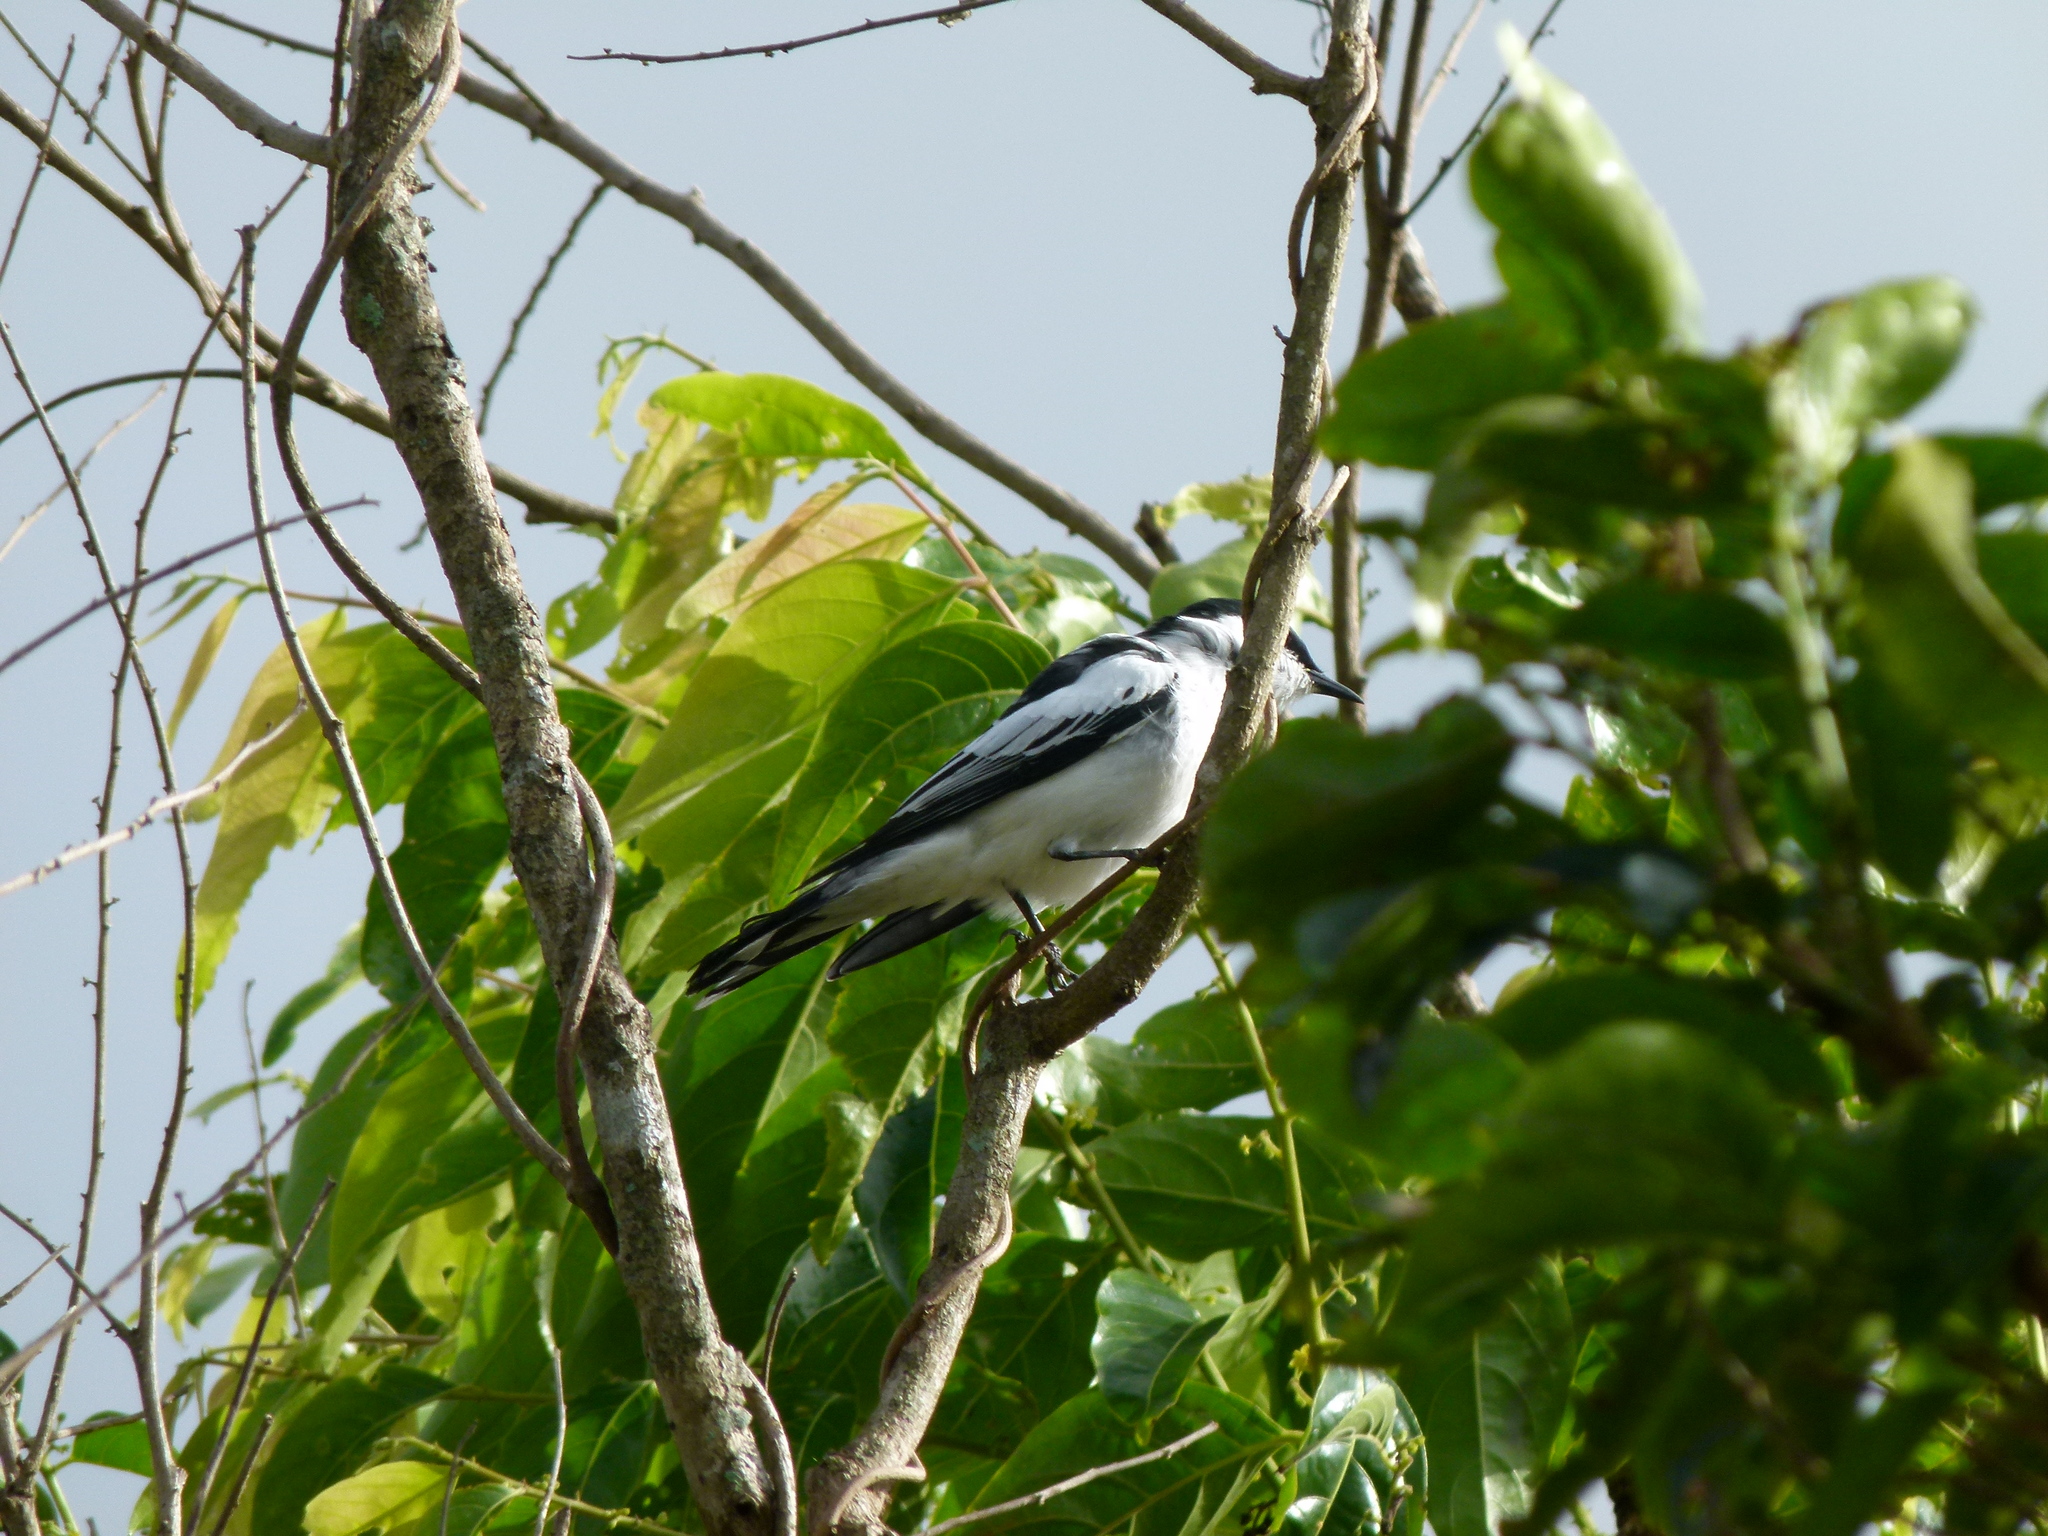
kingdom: Animalia
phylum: Chordata
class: Aves
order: Passeriformes
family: Campephagidae
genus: Lalage
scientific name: Lalage tricolor
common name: White-winged triller
